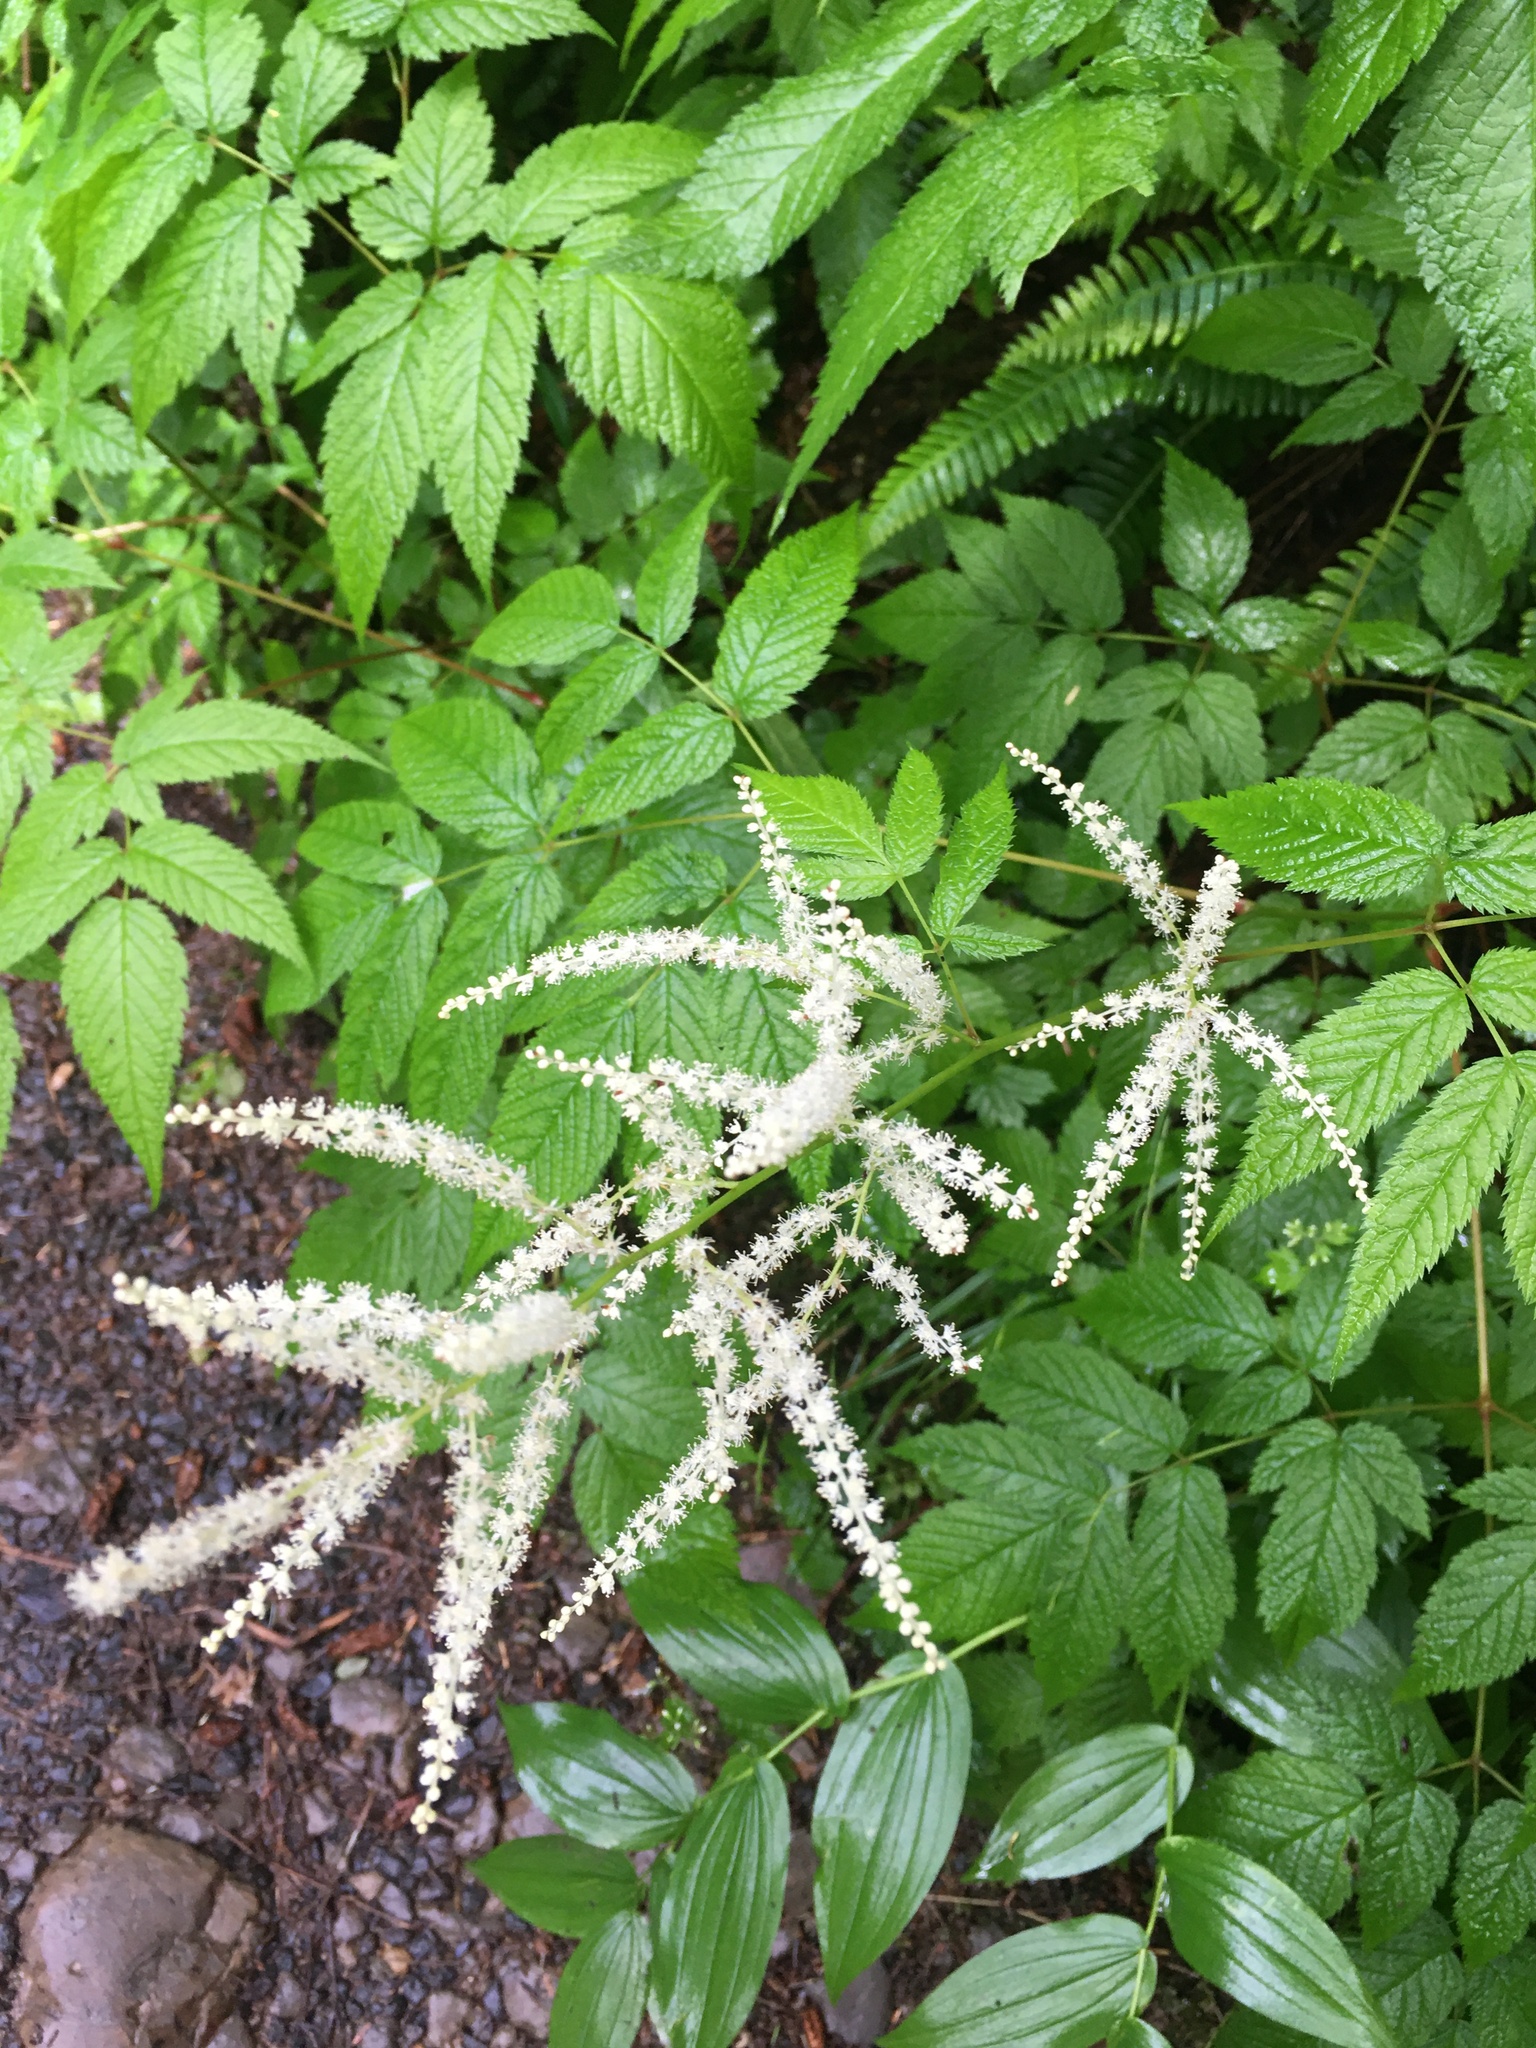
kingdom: Plantae
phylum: Tracheophyta
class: Magnoliopsida
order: Rosales
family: Rosaceae
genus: Aruncus
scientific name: Aruncus dioicus
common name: Buck's-beard
